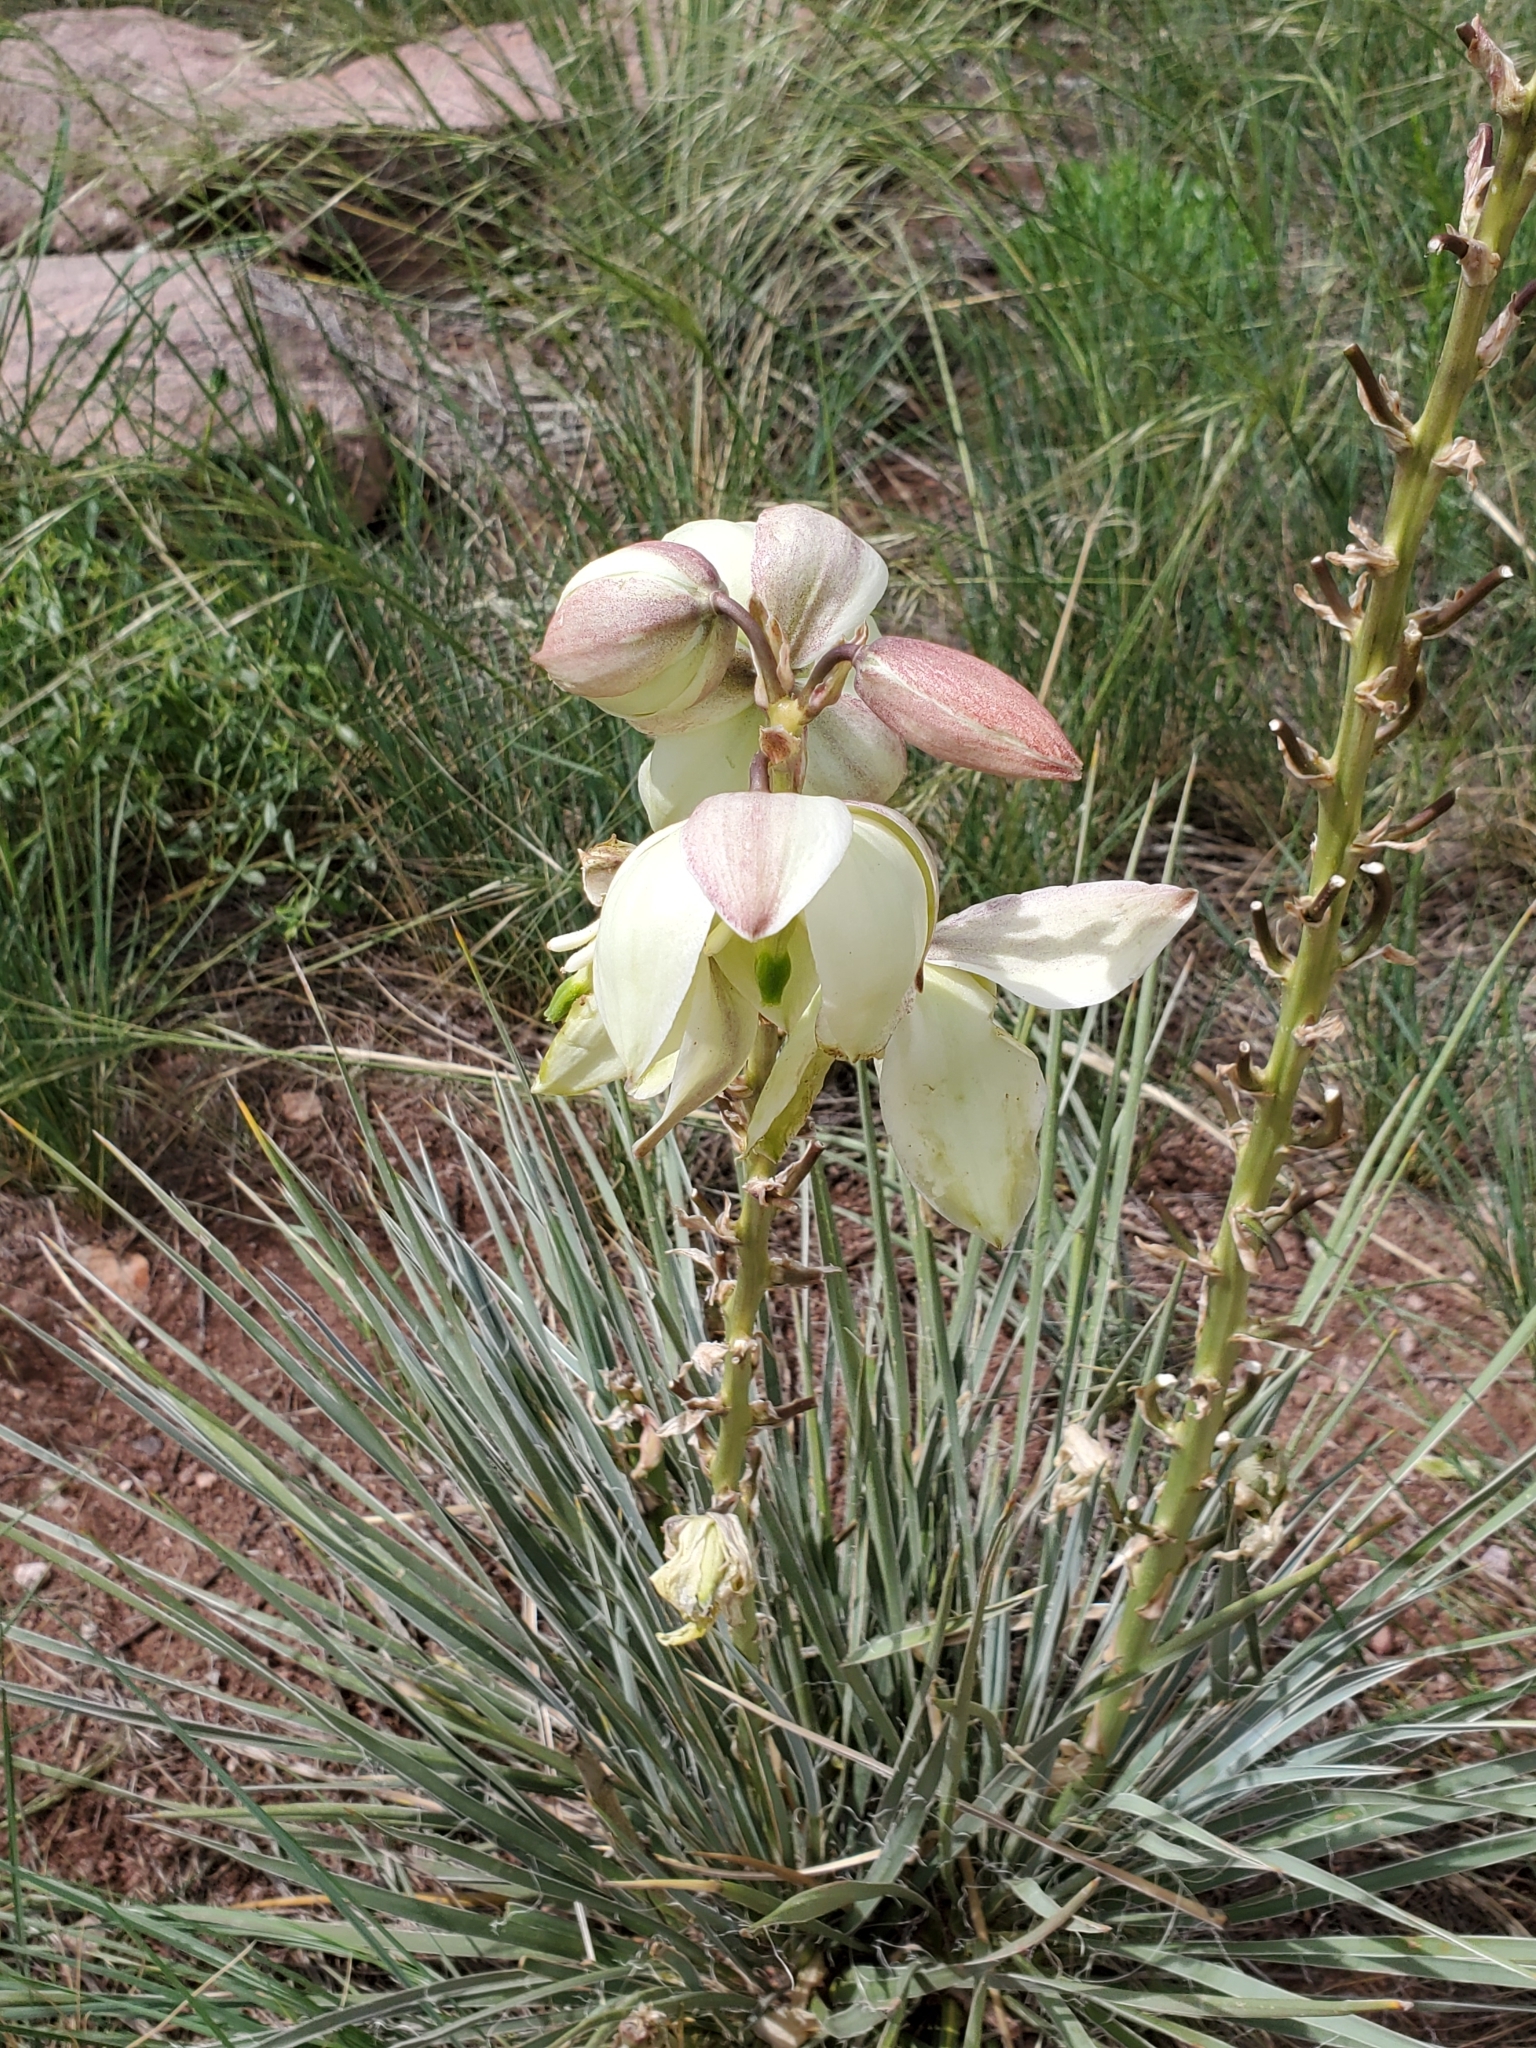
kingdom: Plantae
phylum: Tracheophyta
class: Liliopsida
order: Asparagales
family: Asparagaceae
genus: Yucca
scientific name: Yucca glauca
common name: Great plains yucca
